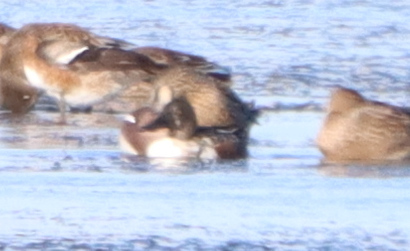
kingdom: Animalia
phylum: Chordata
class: Aves
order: Anseriformes
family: Anatidae
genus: Spatula
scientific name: Spatula clypeata
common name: Northern shoveler
